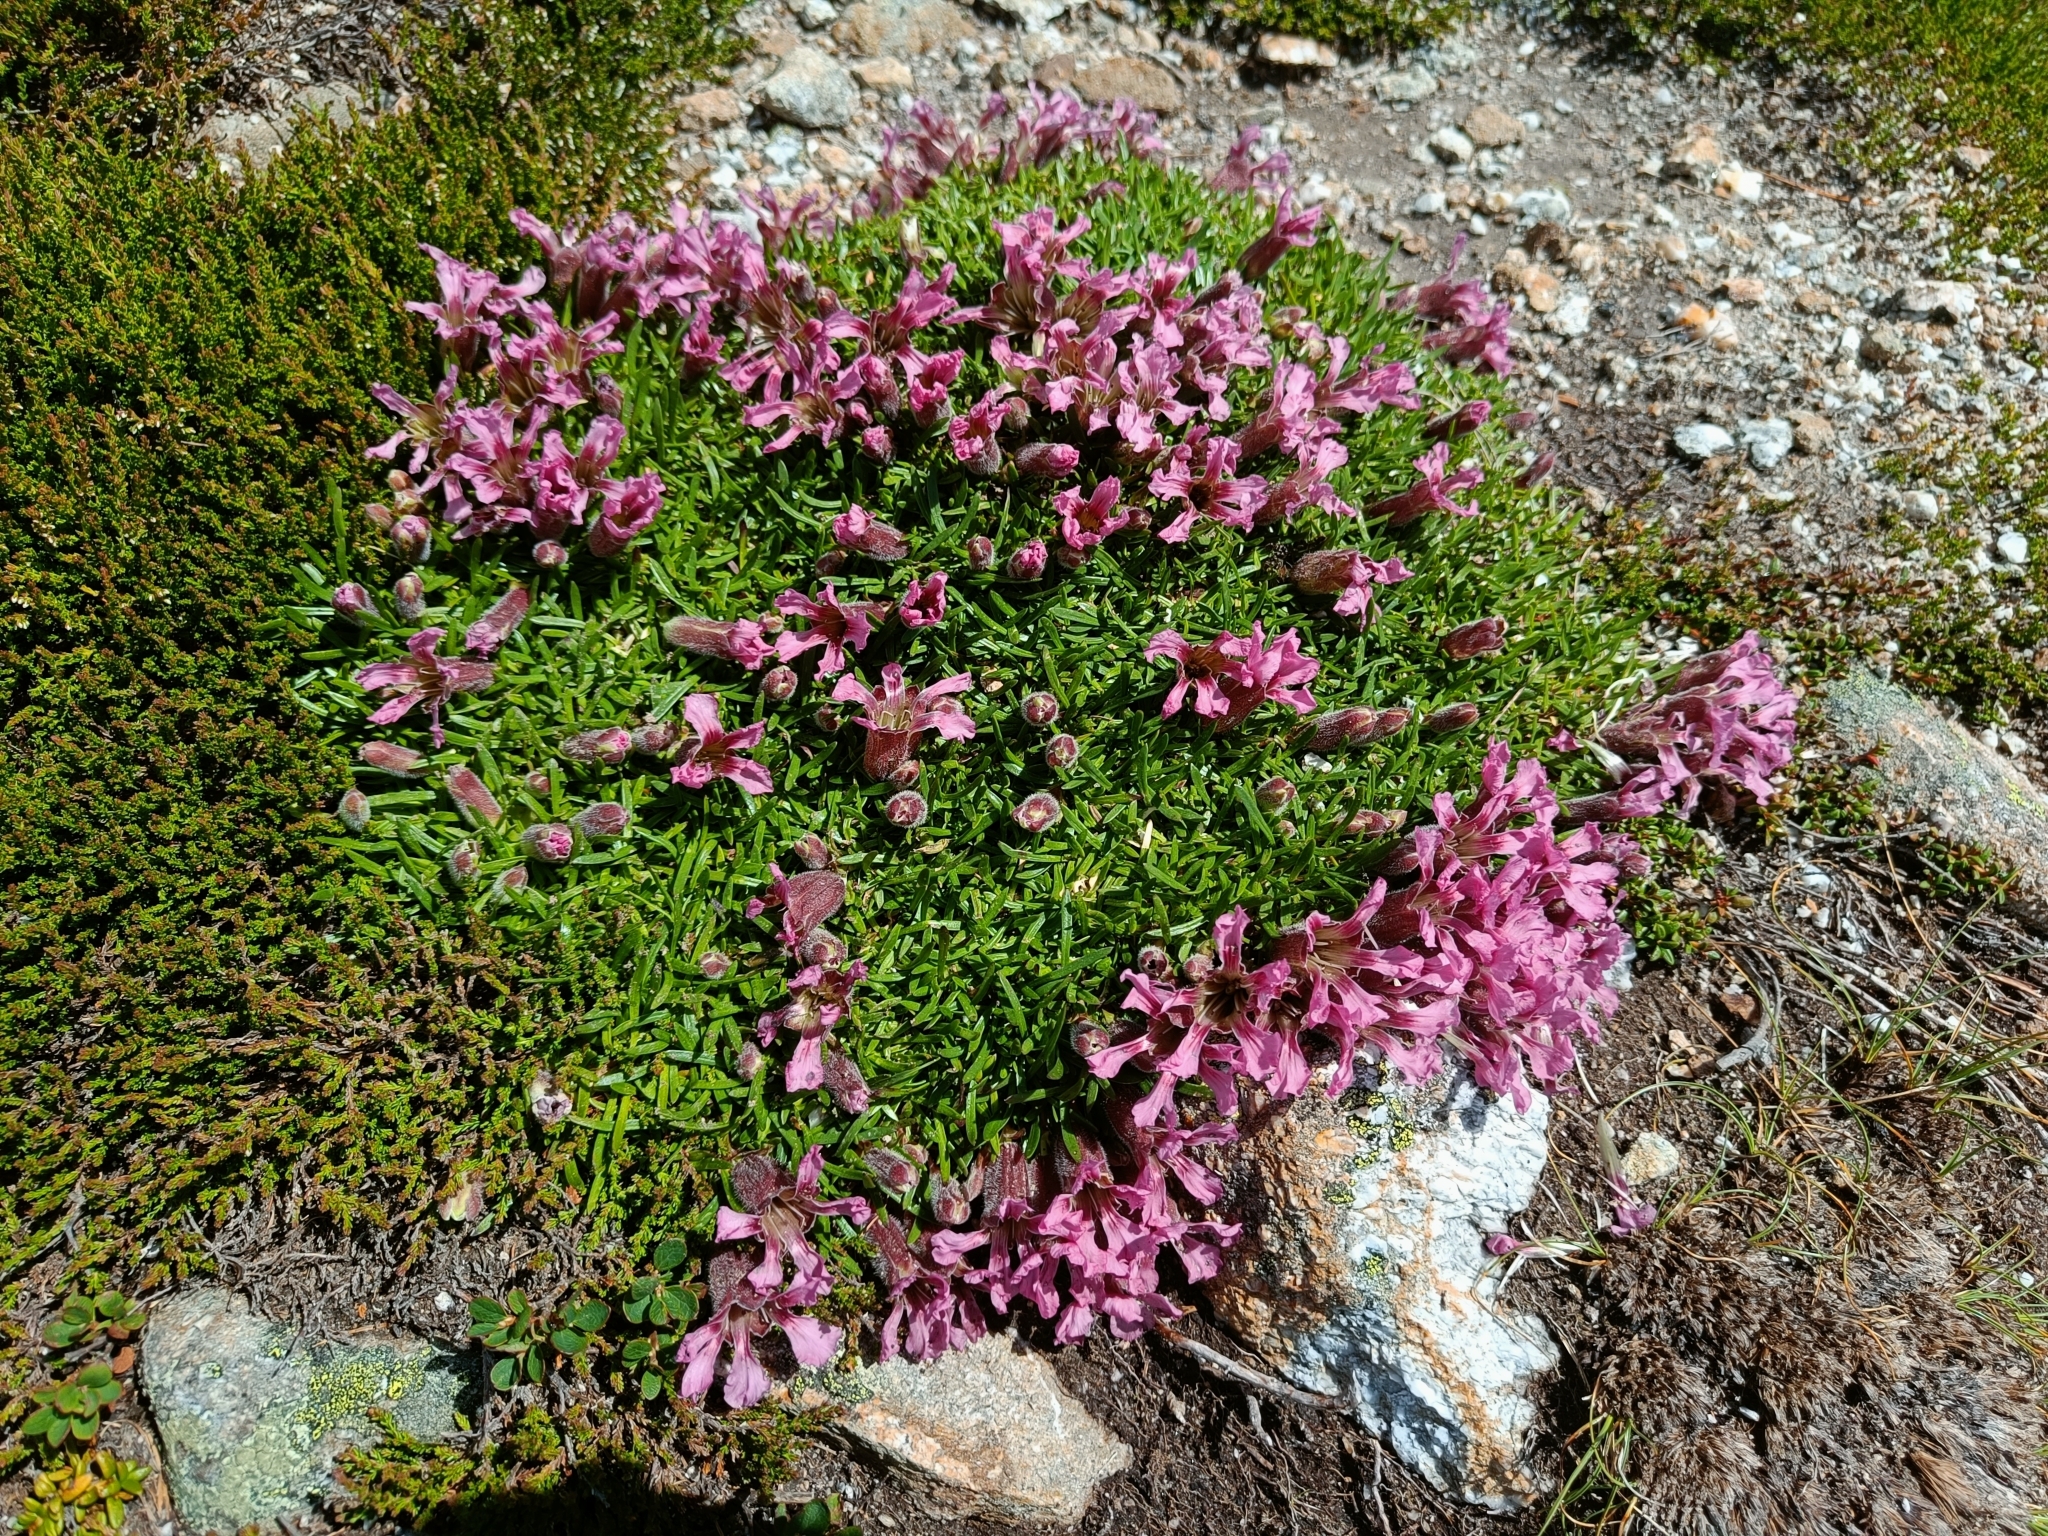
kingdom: Plantae
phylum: Tracheophyta
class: Magnoliopsida
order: Caryophyllales
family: Caryophyllaceae
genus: Saponaria
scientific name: Saponaria pumila
